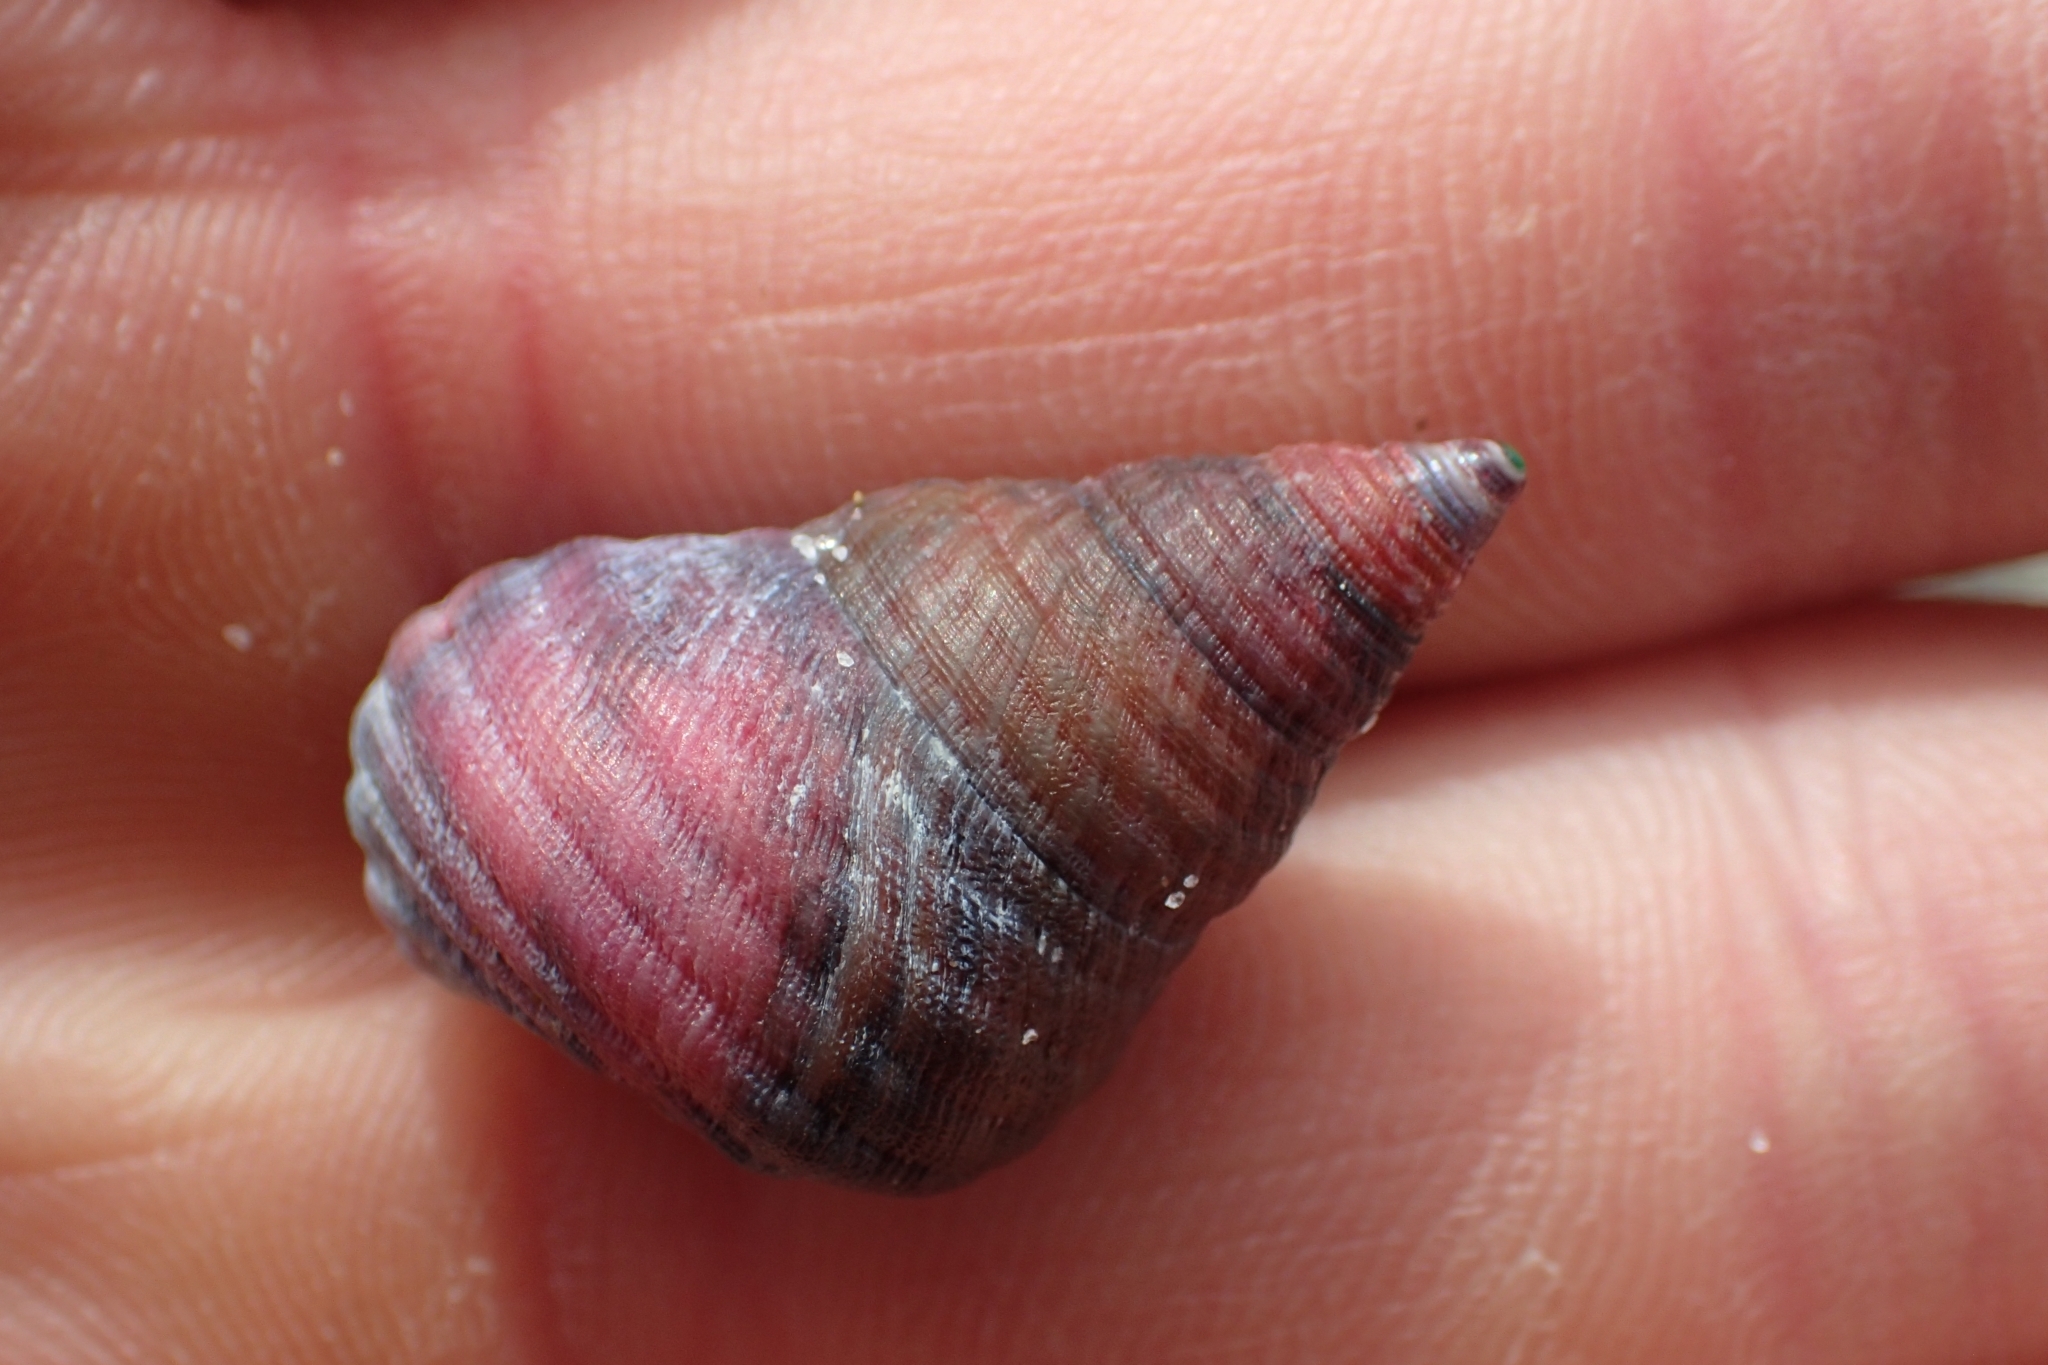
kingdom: Animalia
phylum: Mollusca
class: Gastropoda
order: Trochida
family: Trochidae
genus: Micrelenchus
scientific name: Micrelenchus purpureus
